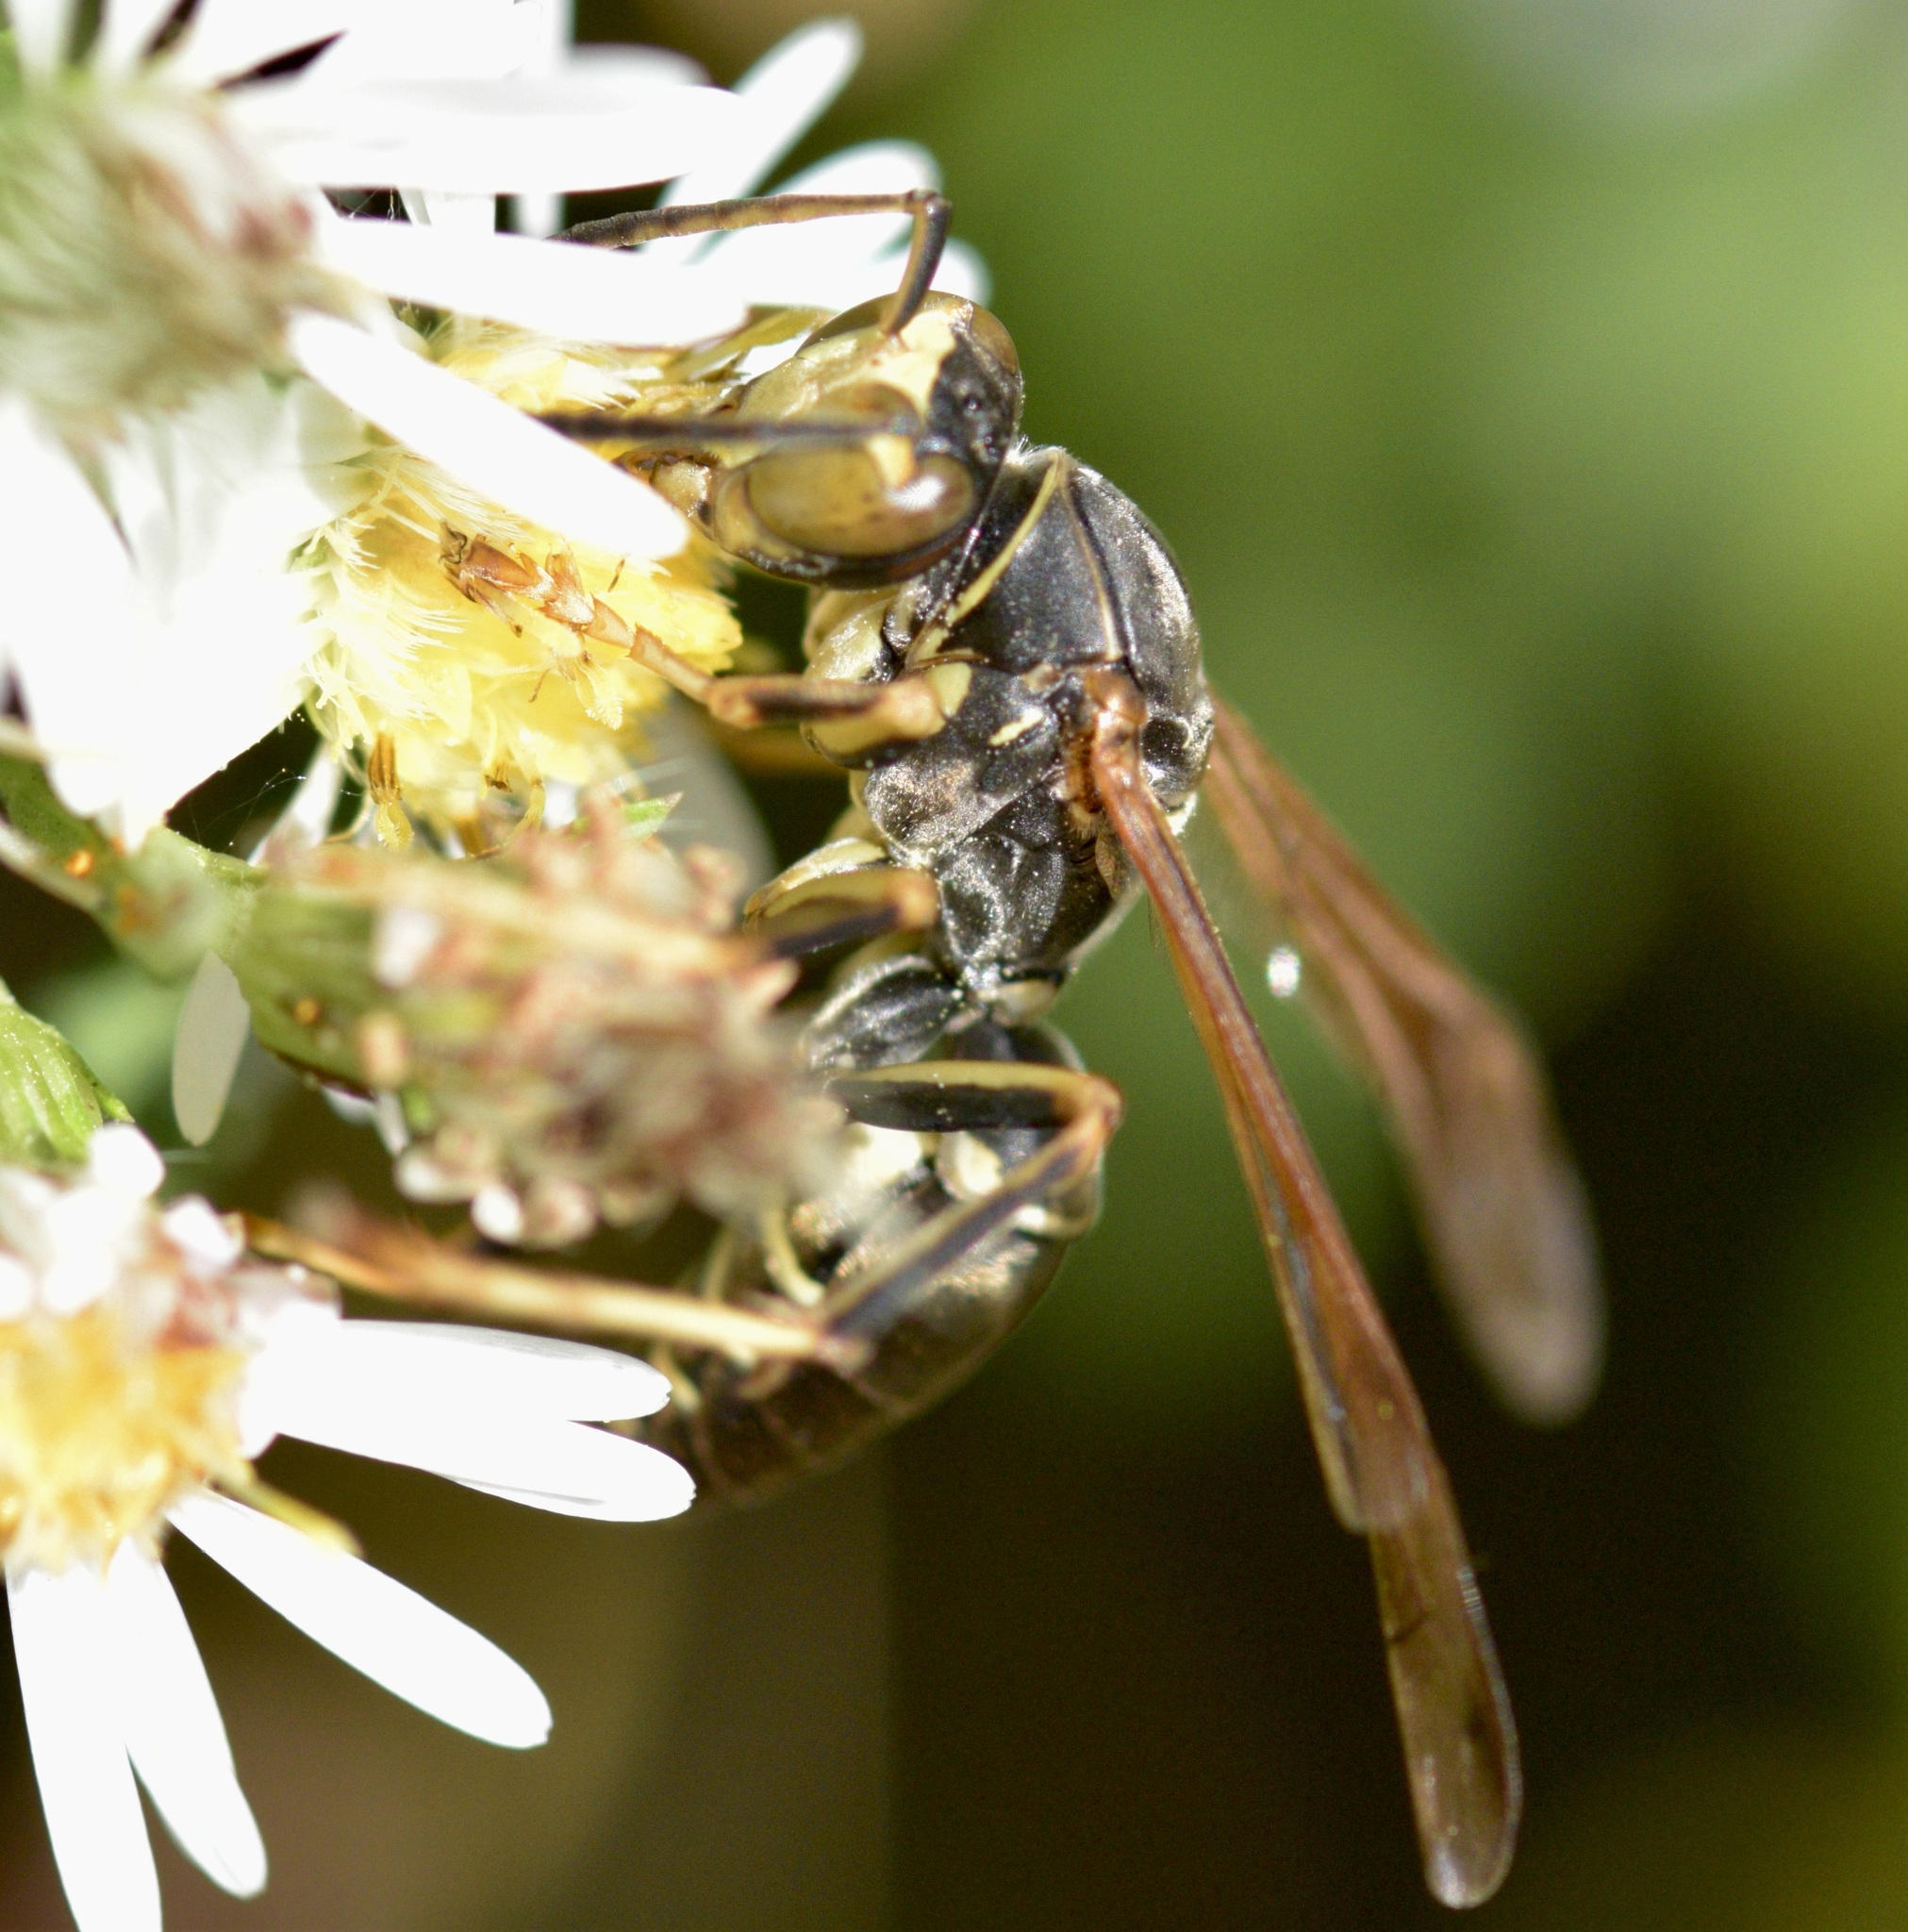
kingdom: Animalia
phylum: Arthropoda
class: Insecta
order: Hymenoptera
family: Eumenidae
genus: Polistes
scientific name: Polistes fuscatus
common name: Dark paper wasp
